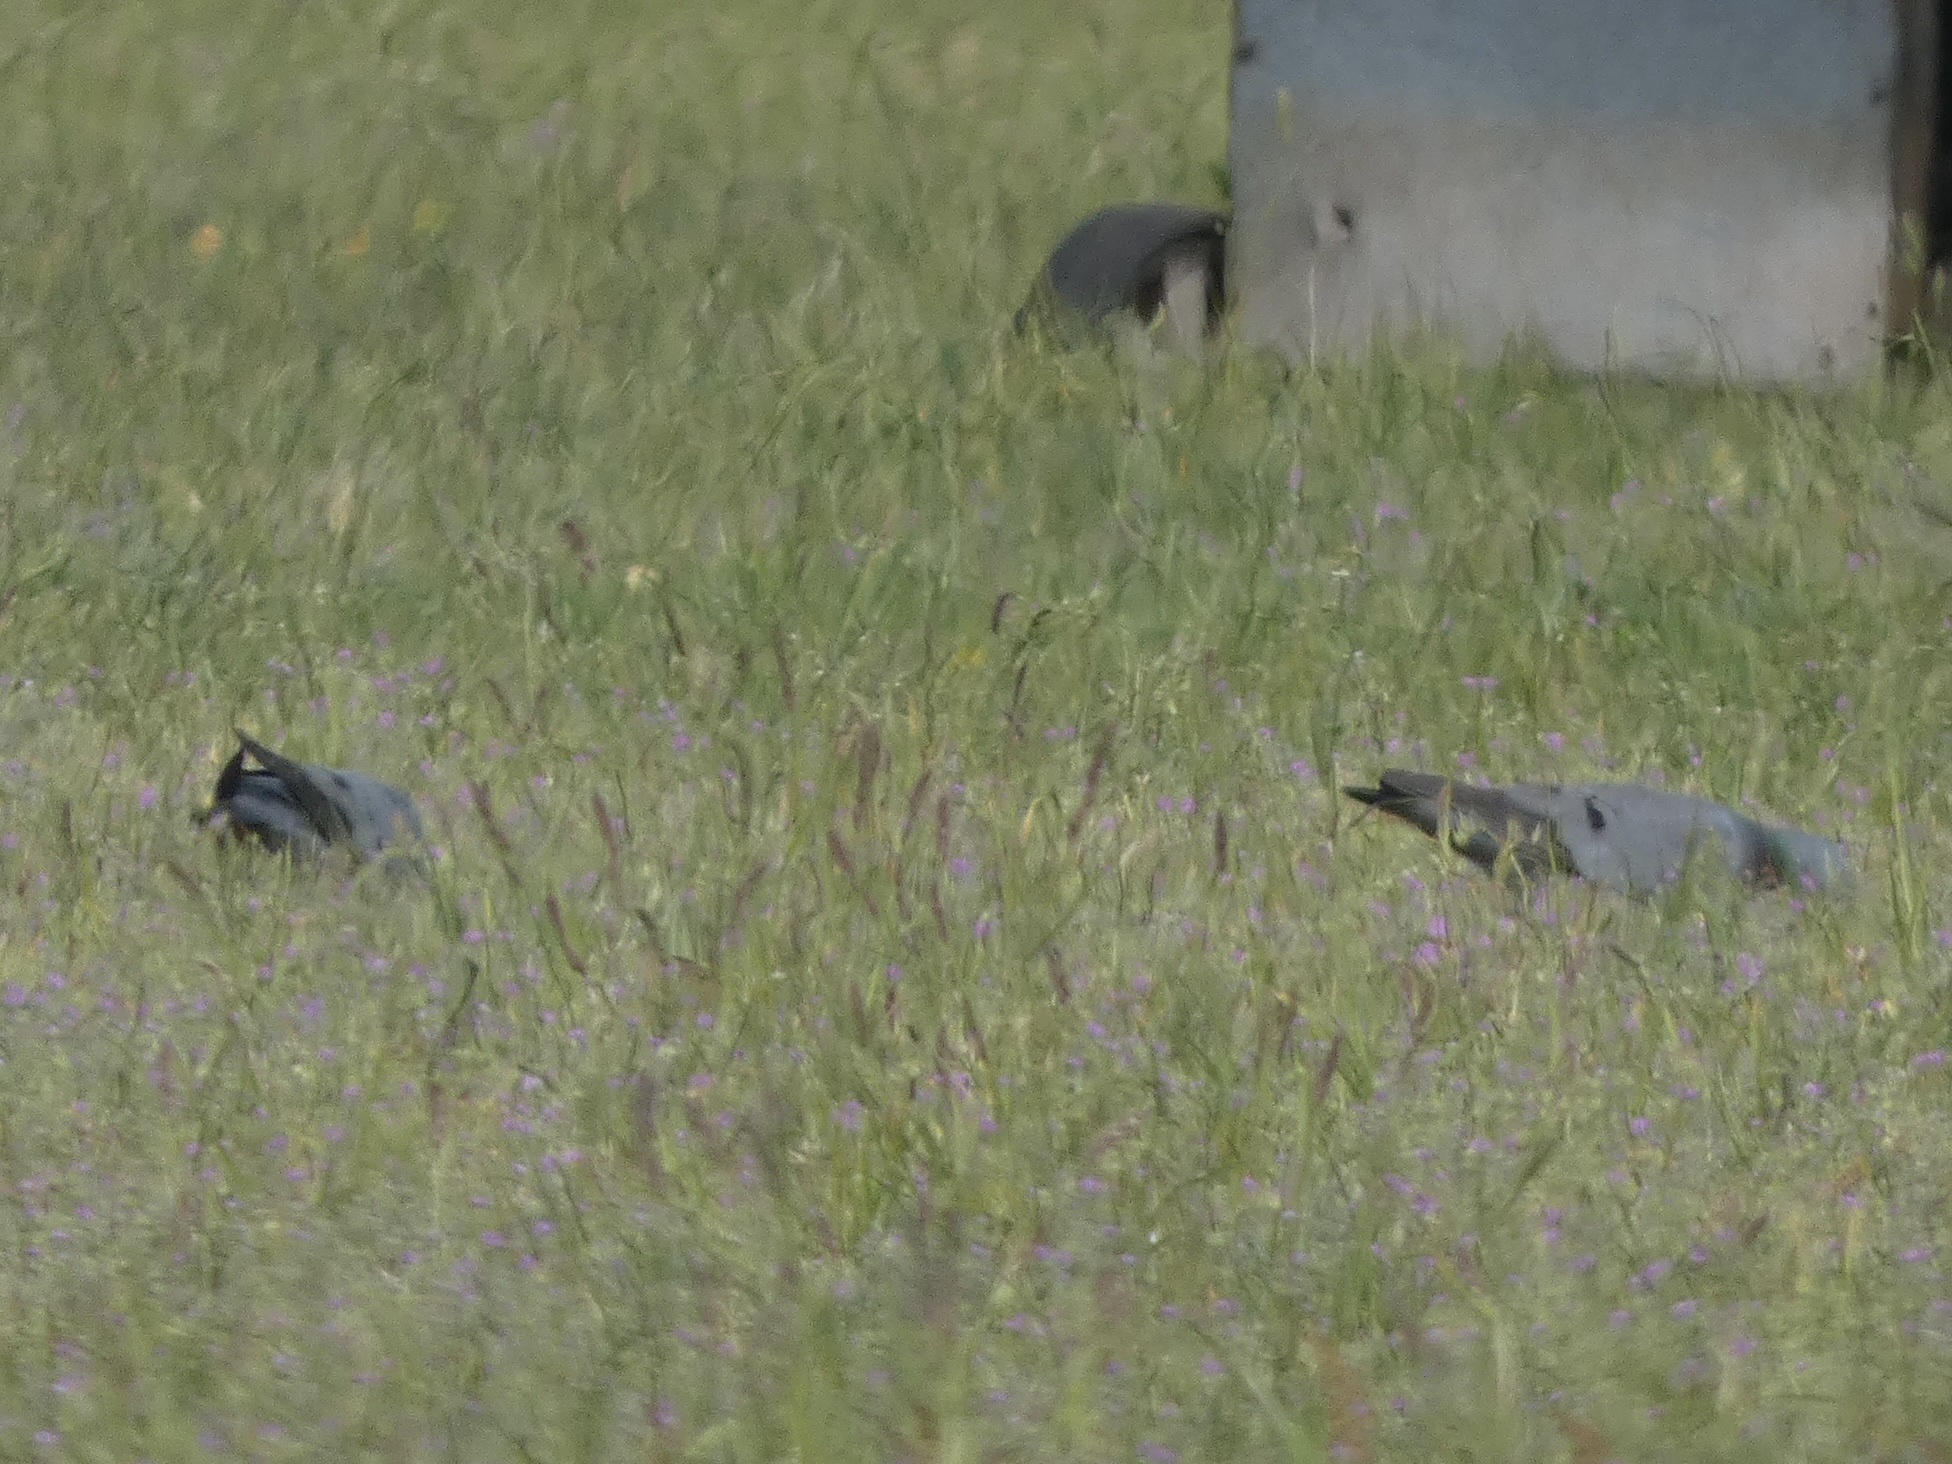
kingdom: Animalia
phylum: Chordata
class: Aves
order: Columbiformes
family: Columbidae
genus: Columba
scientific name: Columba oenas
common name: Stock dove
